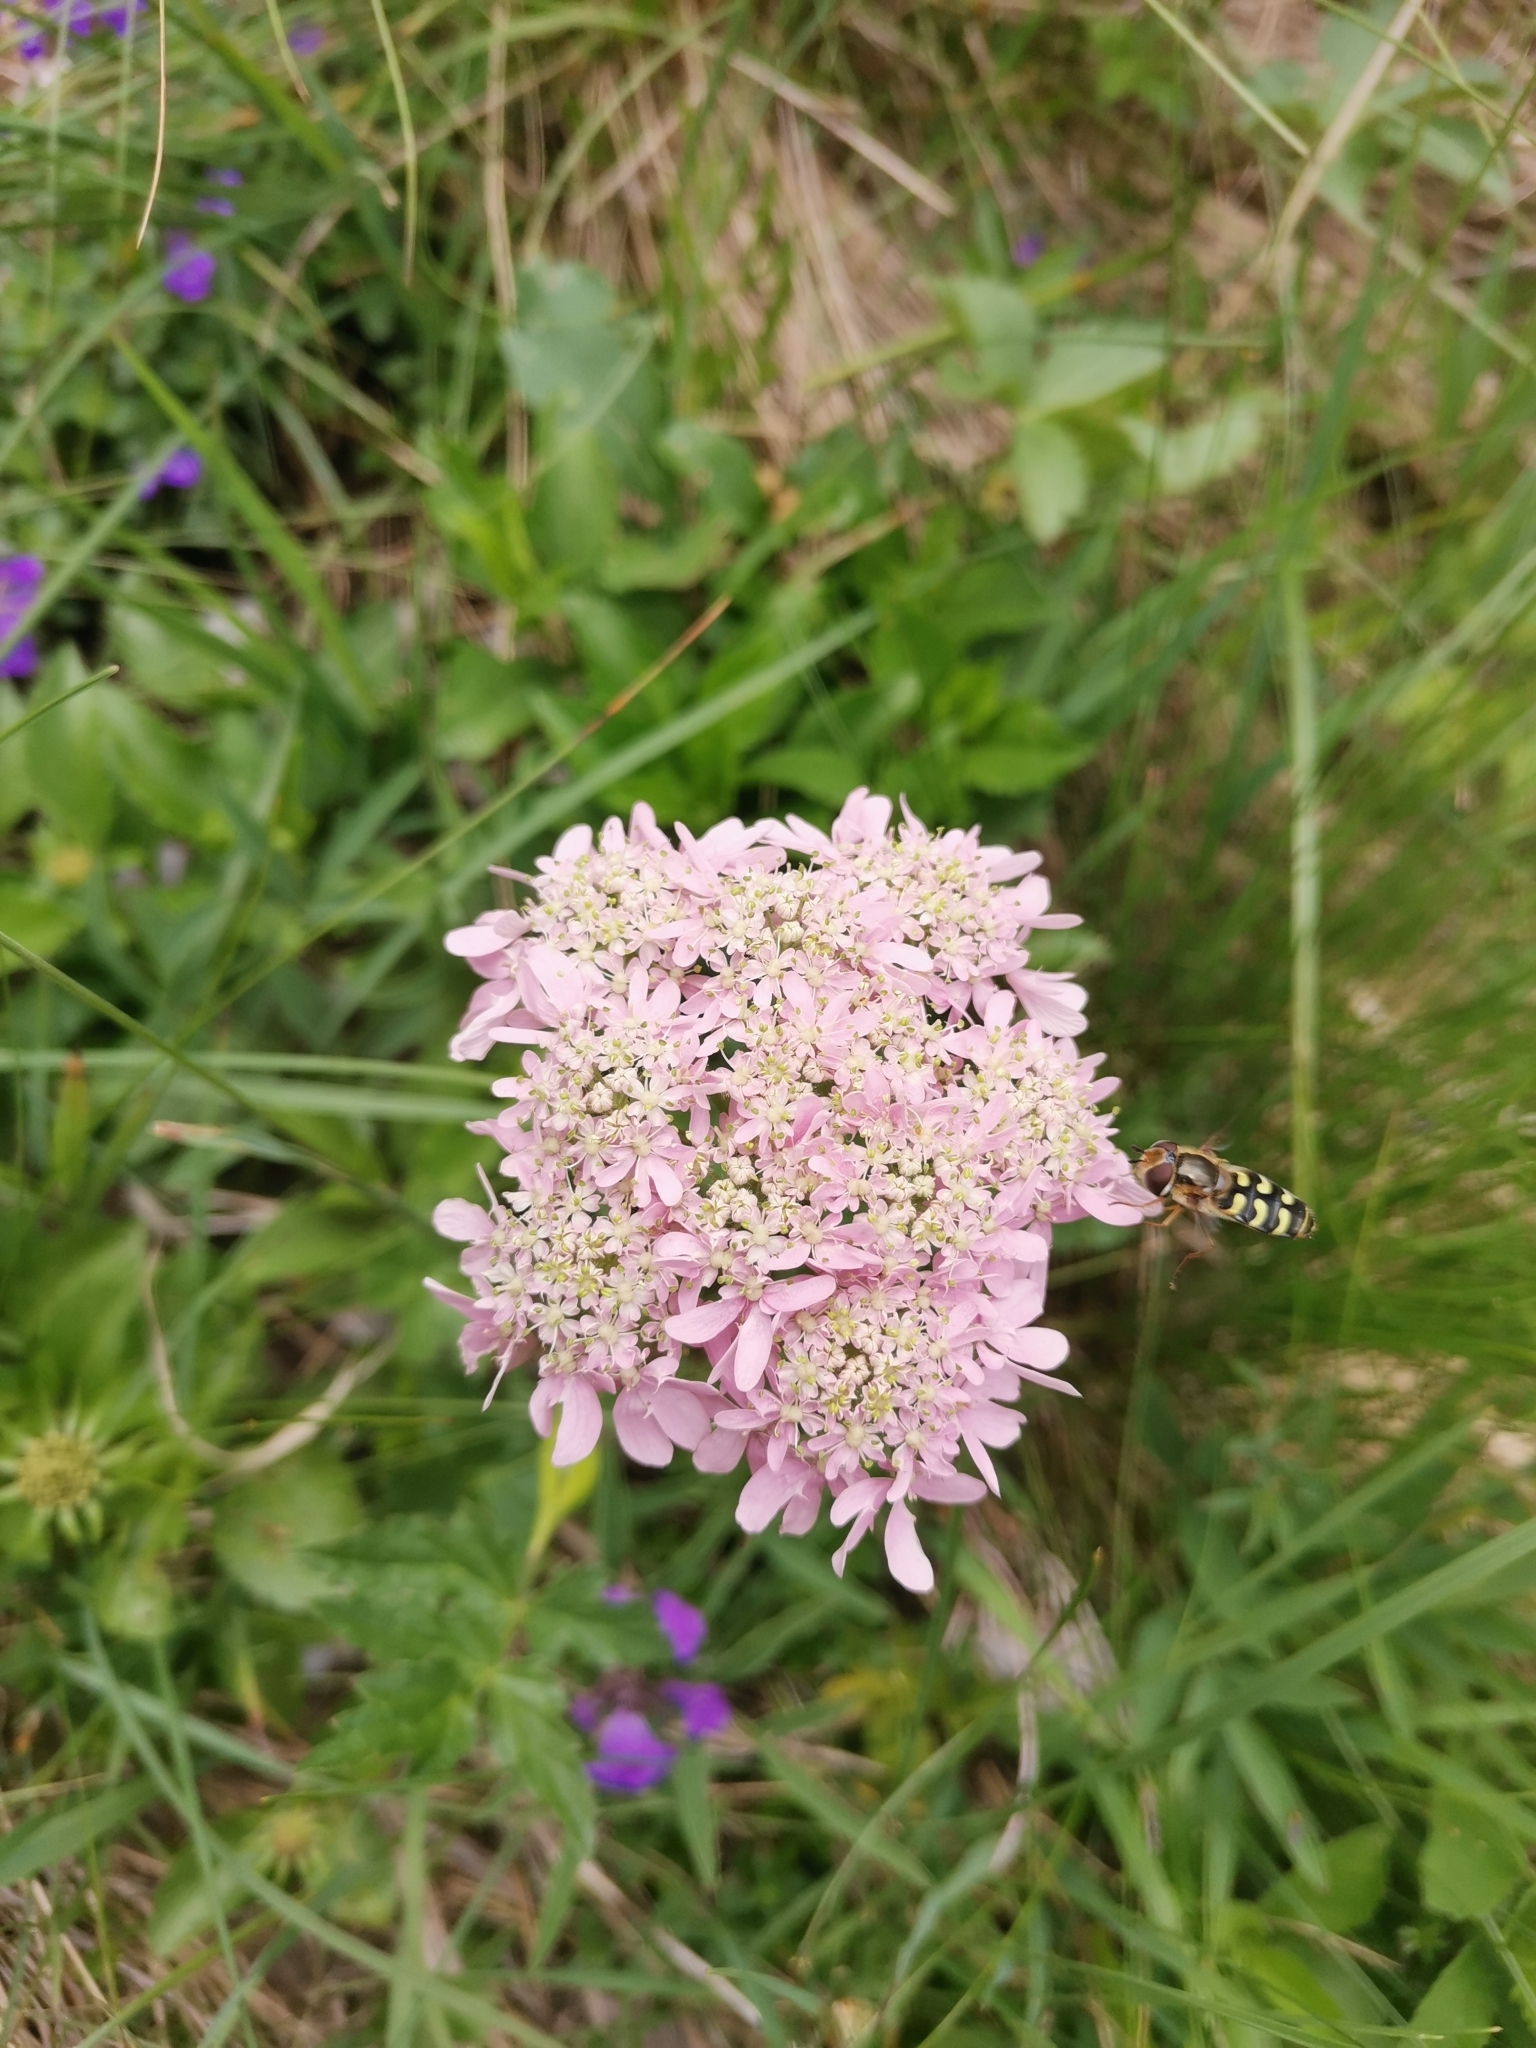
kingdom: Plantae
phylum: Tracheophyta
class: Magnoliopsida
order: Apiales
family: Apiaceae
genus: Heracleum
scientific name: Heracleum austriacum
